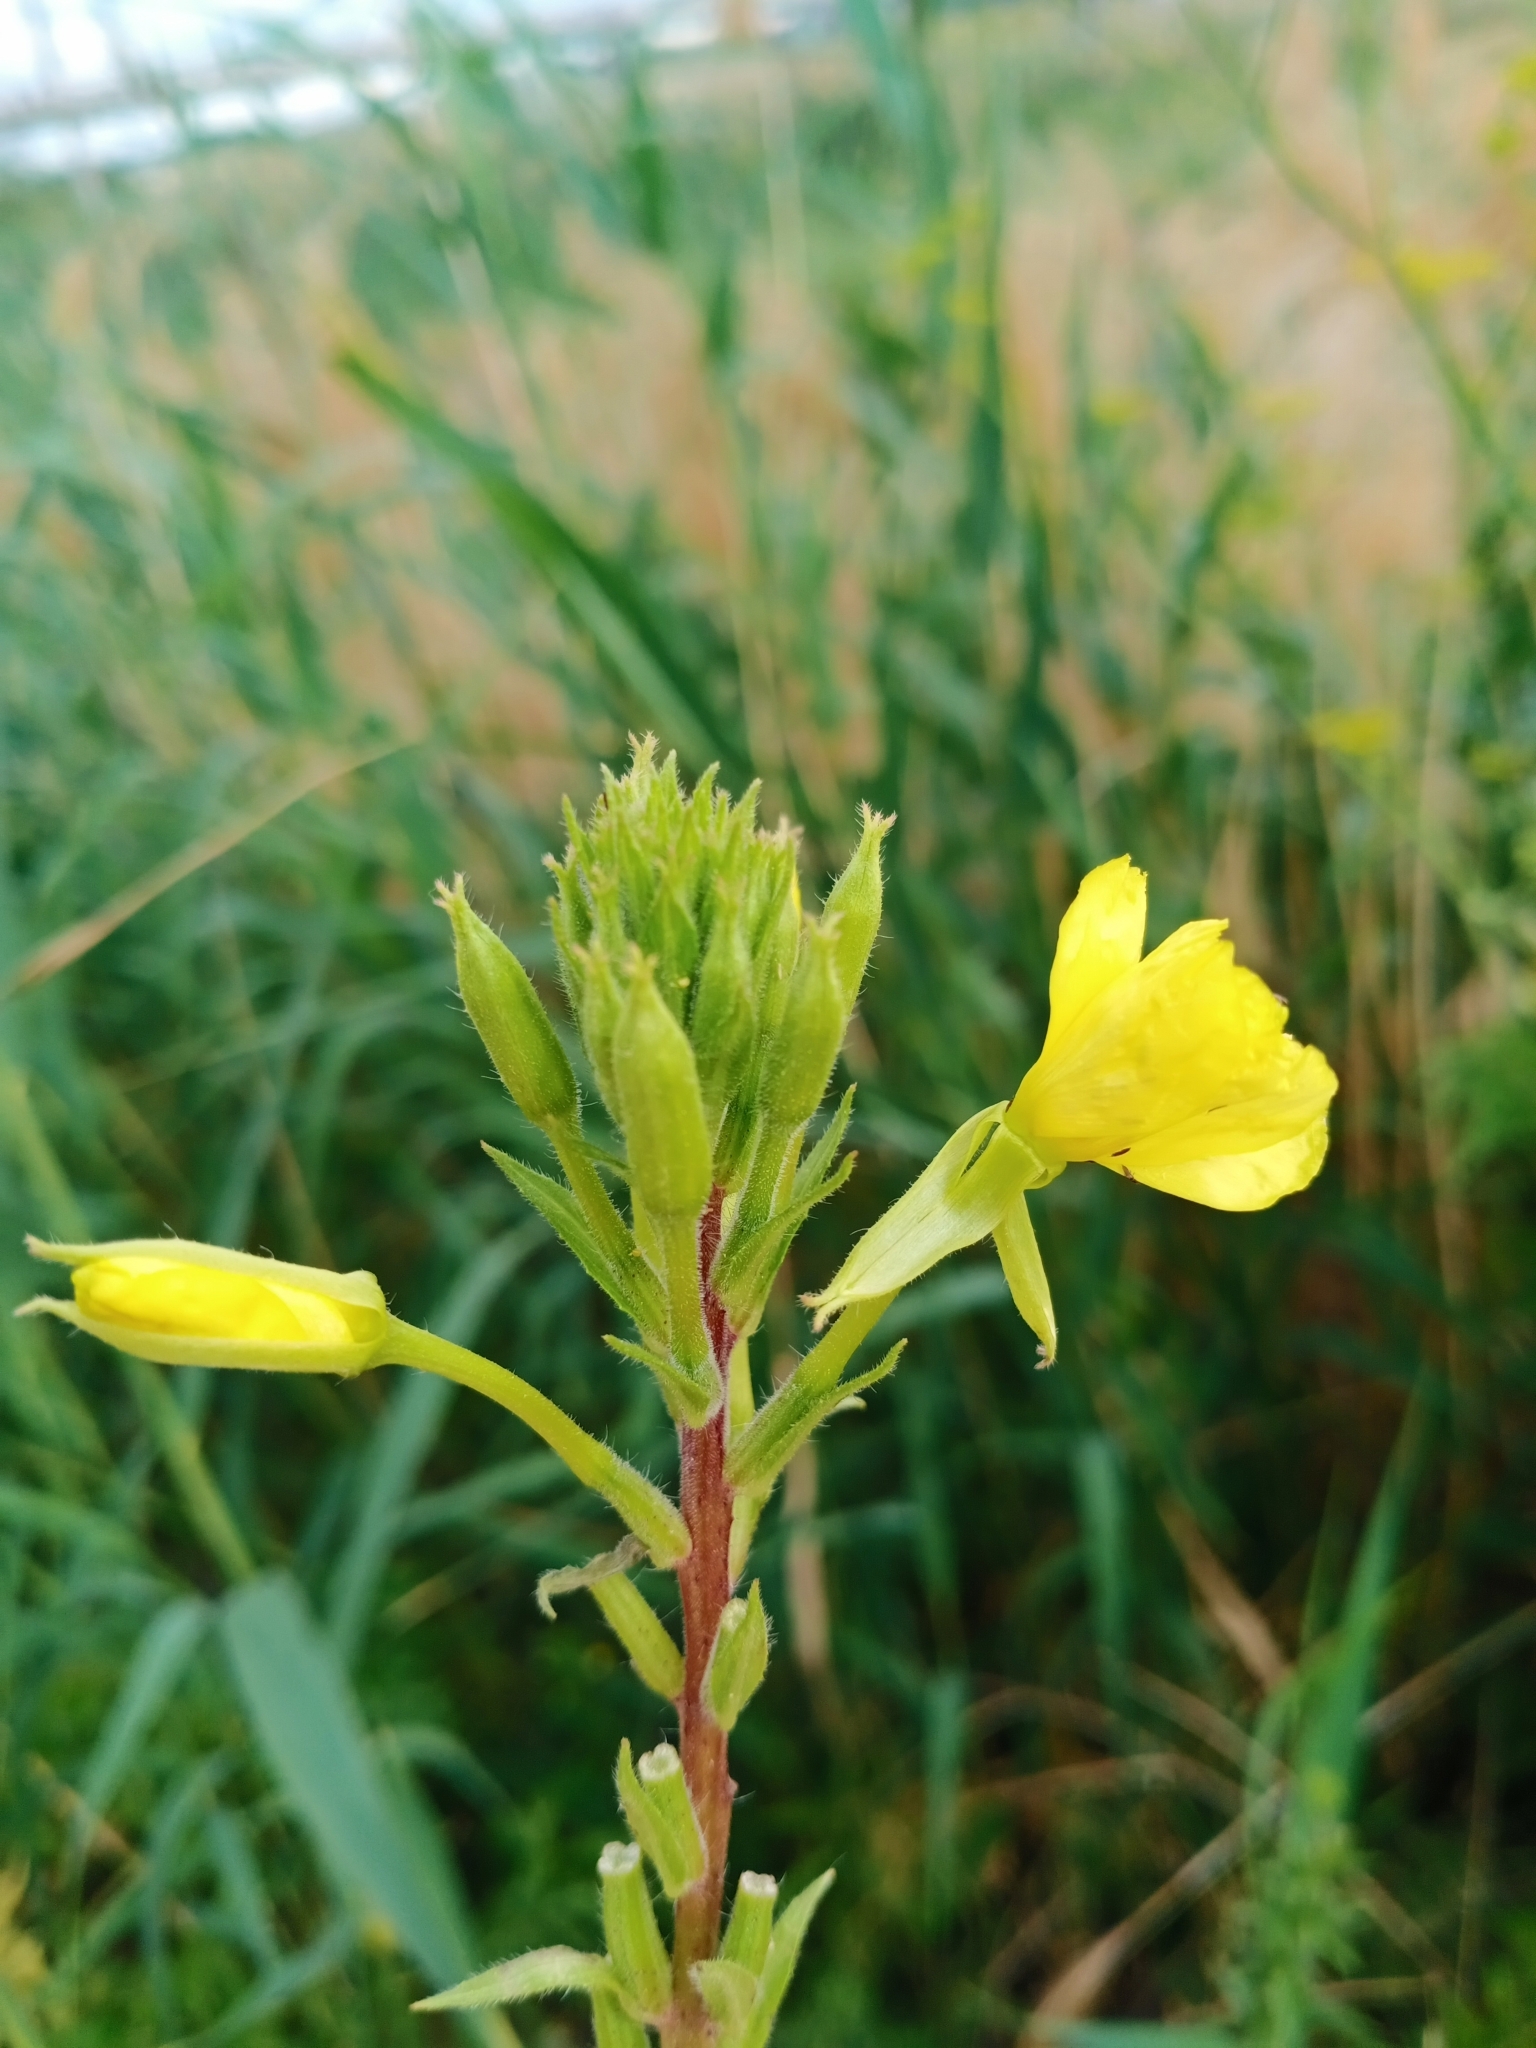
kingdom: Plantae
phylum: Tracheophyta
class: Magnoliopsida
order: Myrtales
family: Onagraceae
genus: Oenothera
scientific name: Oenothera rubricaulis
